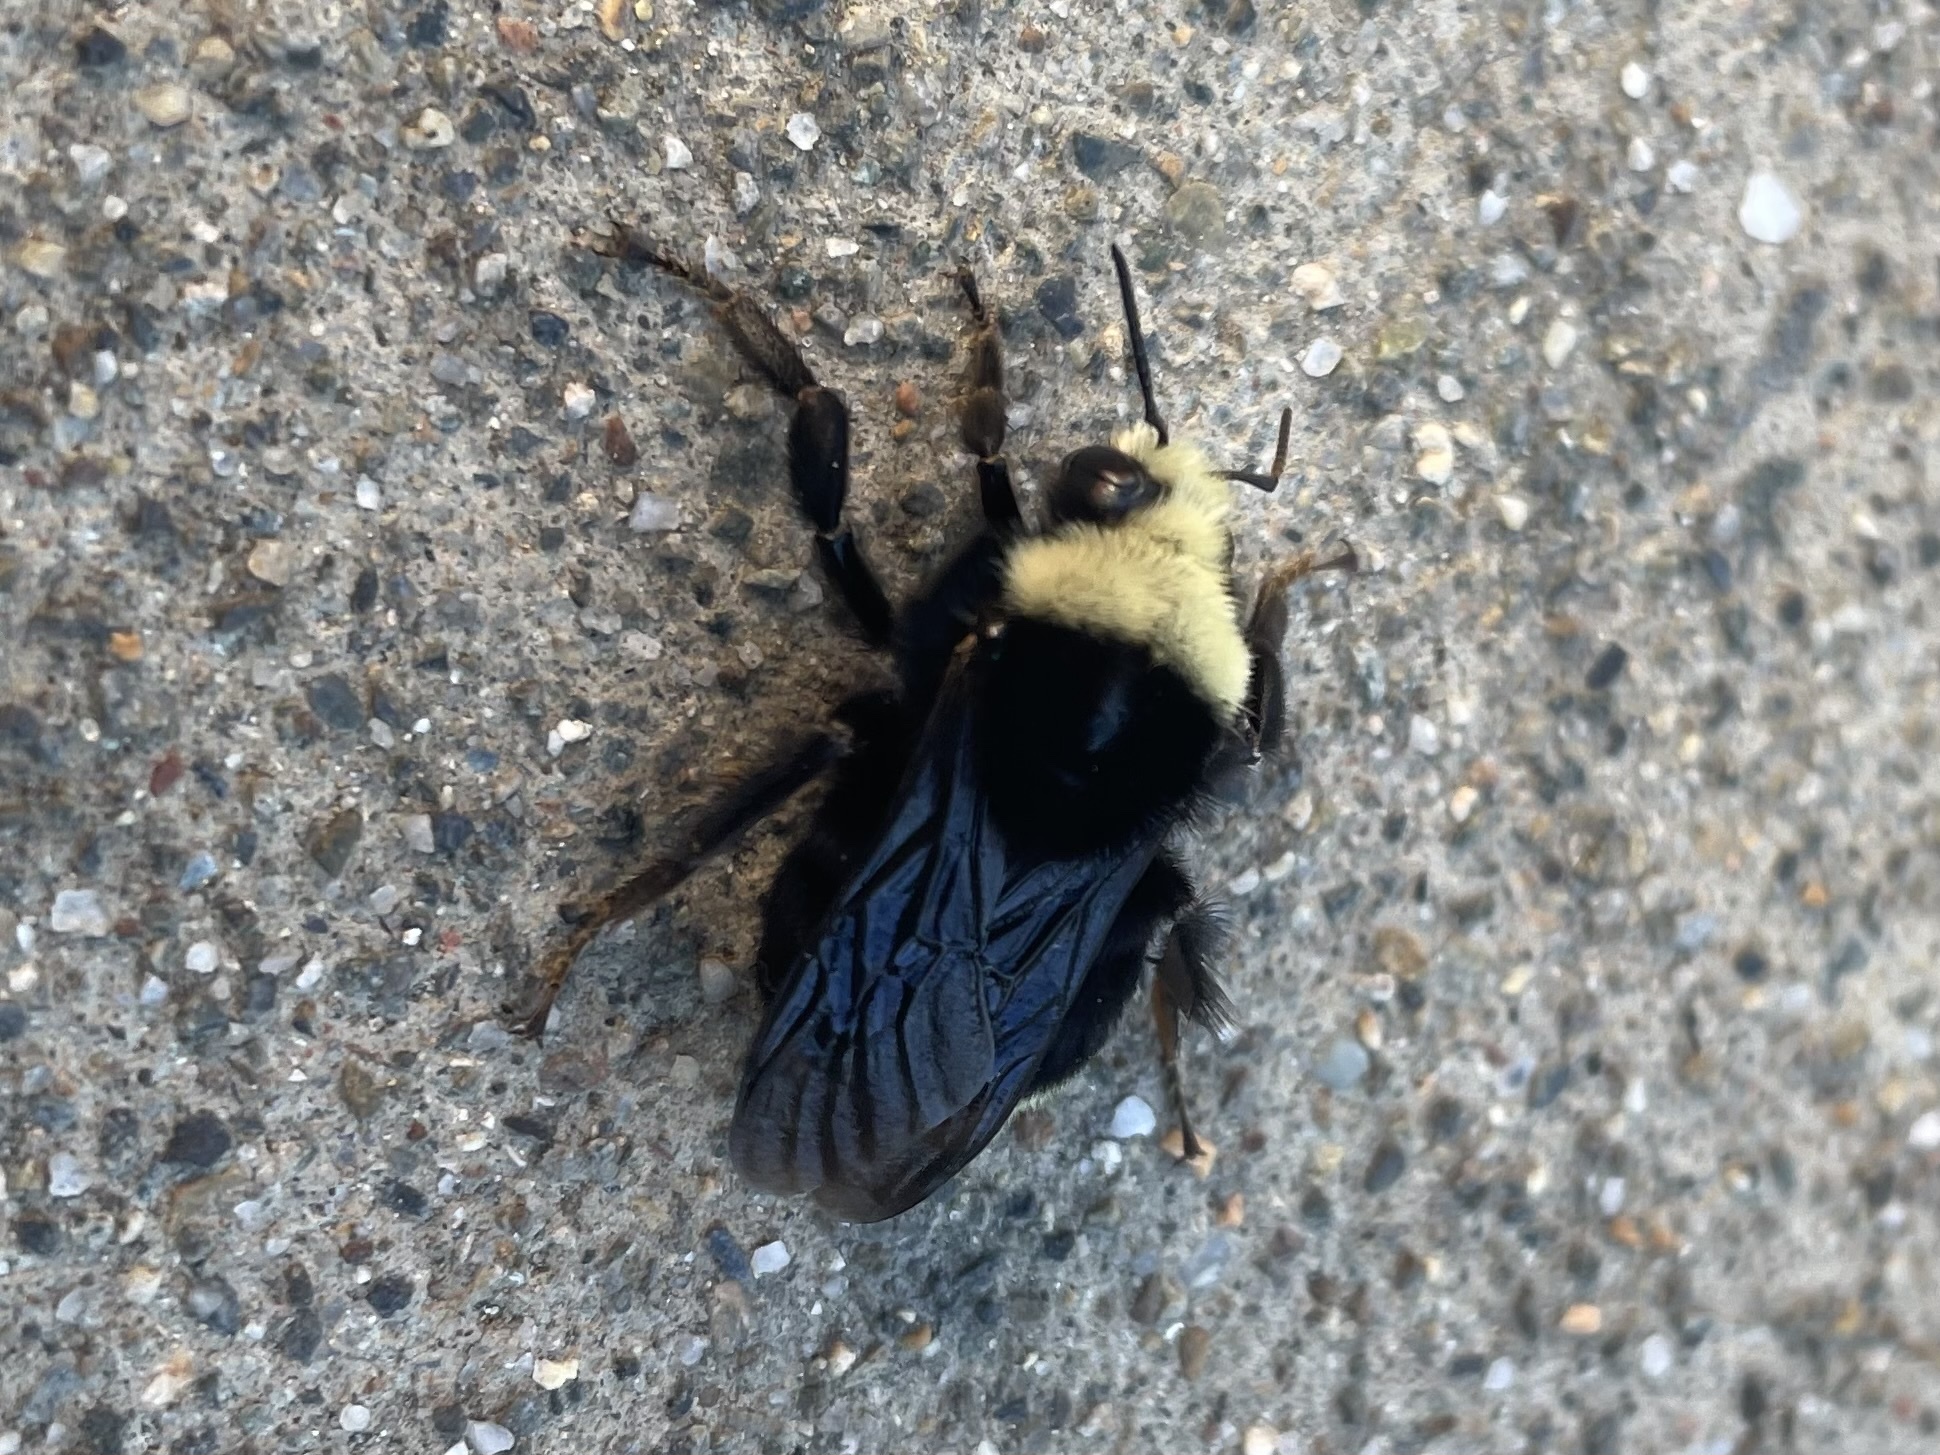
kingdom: Animalia
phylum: Arthropoda
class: Insecta
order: Hymenoptera
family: Apidae
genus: Bombus
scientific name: Bombus vosnesenskii
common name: Vosnesensky bumble bee
